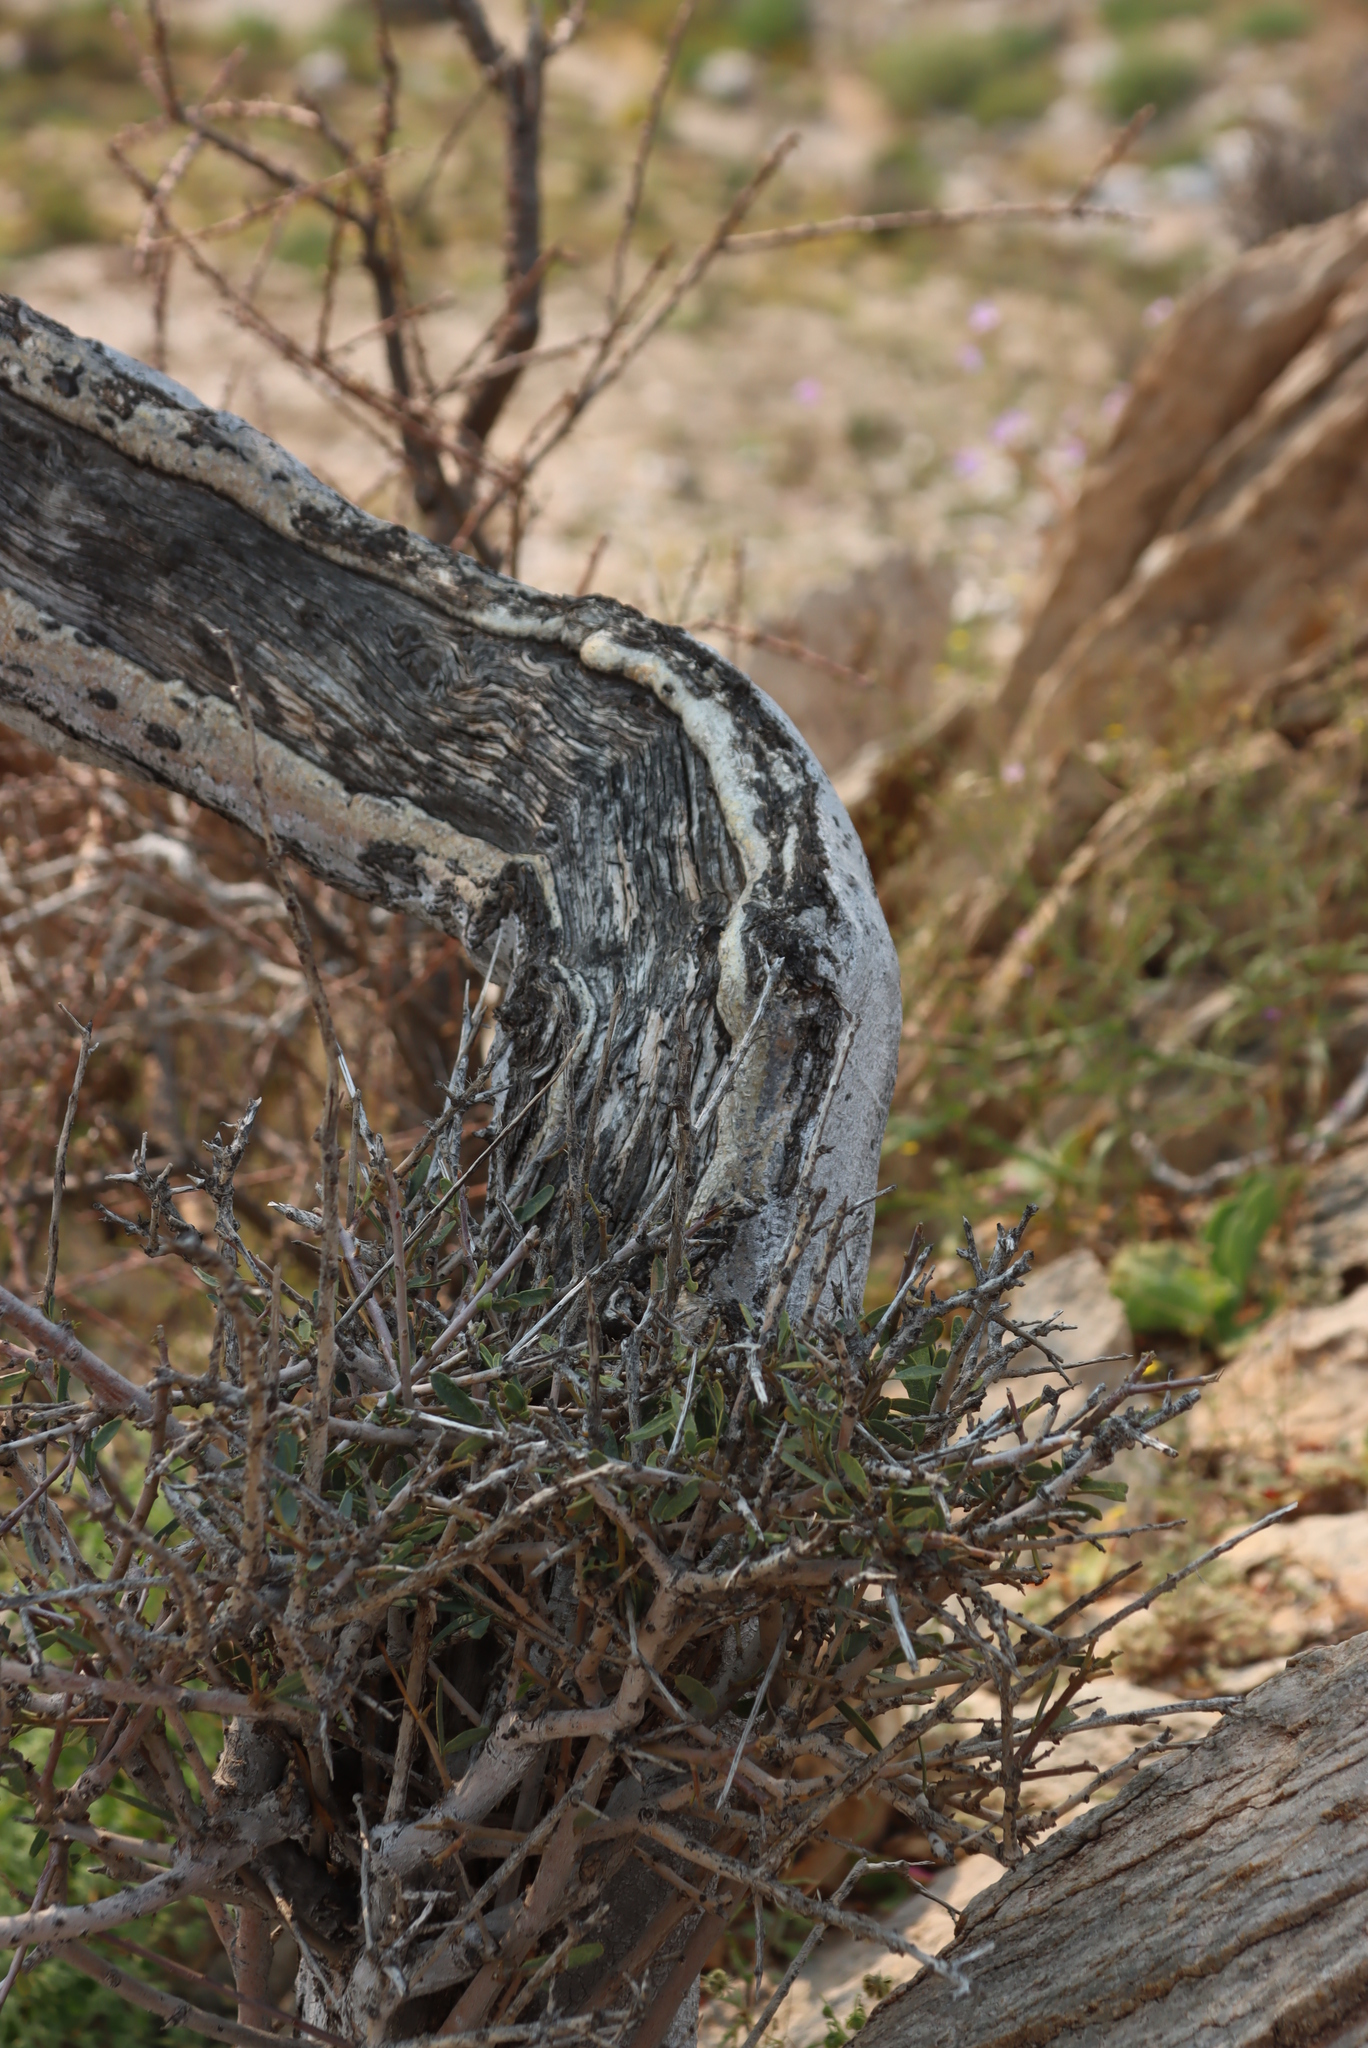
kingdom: Plantae
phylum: Tracheophyta
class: Magnoliopsida
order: Brassicales
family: Capparaceae
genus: Boscia
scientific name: Boscia albitrunca
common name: Caper bush
